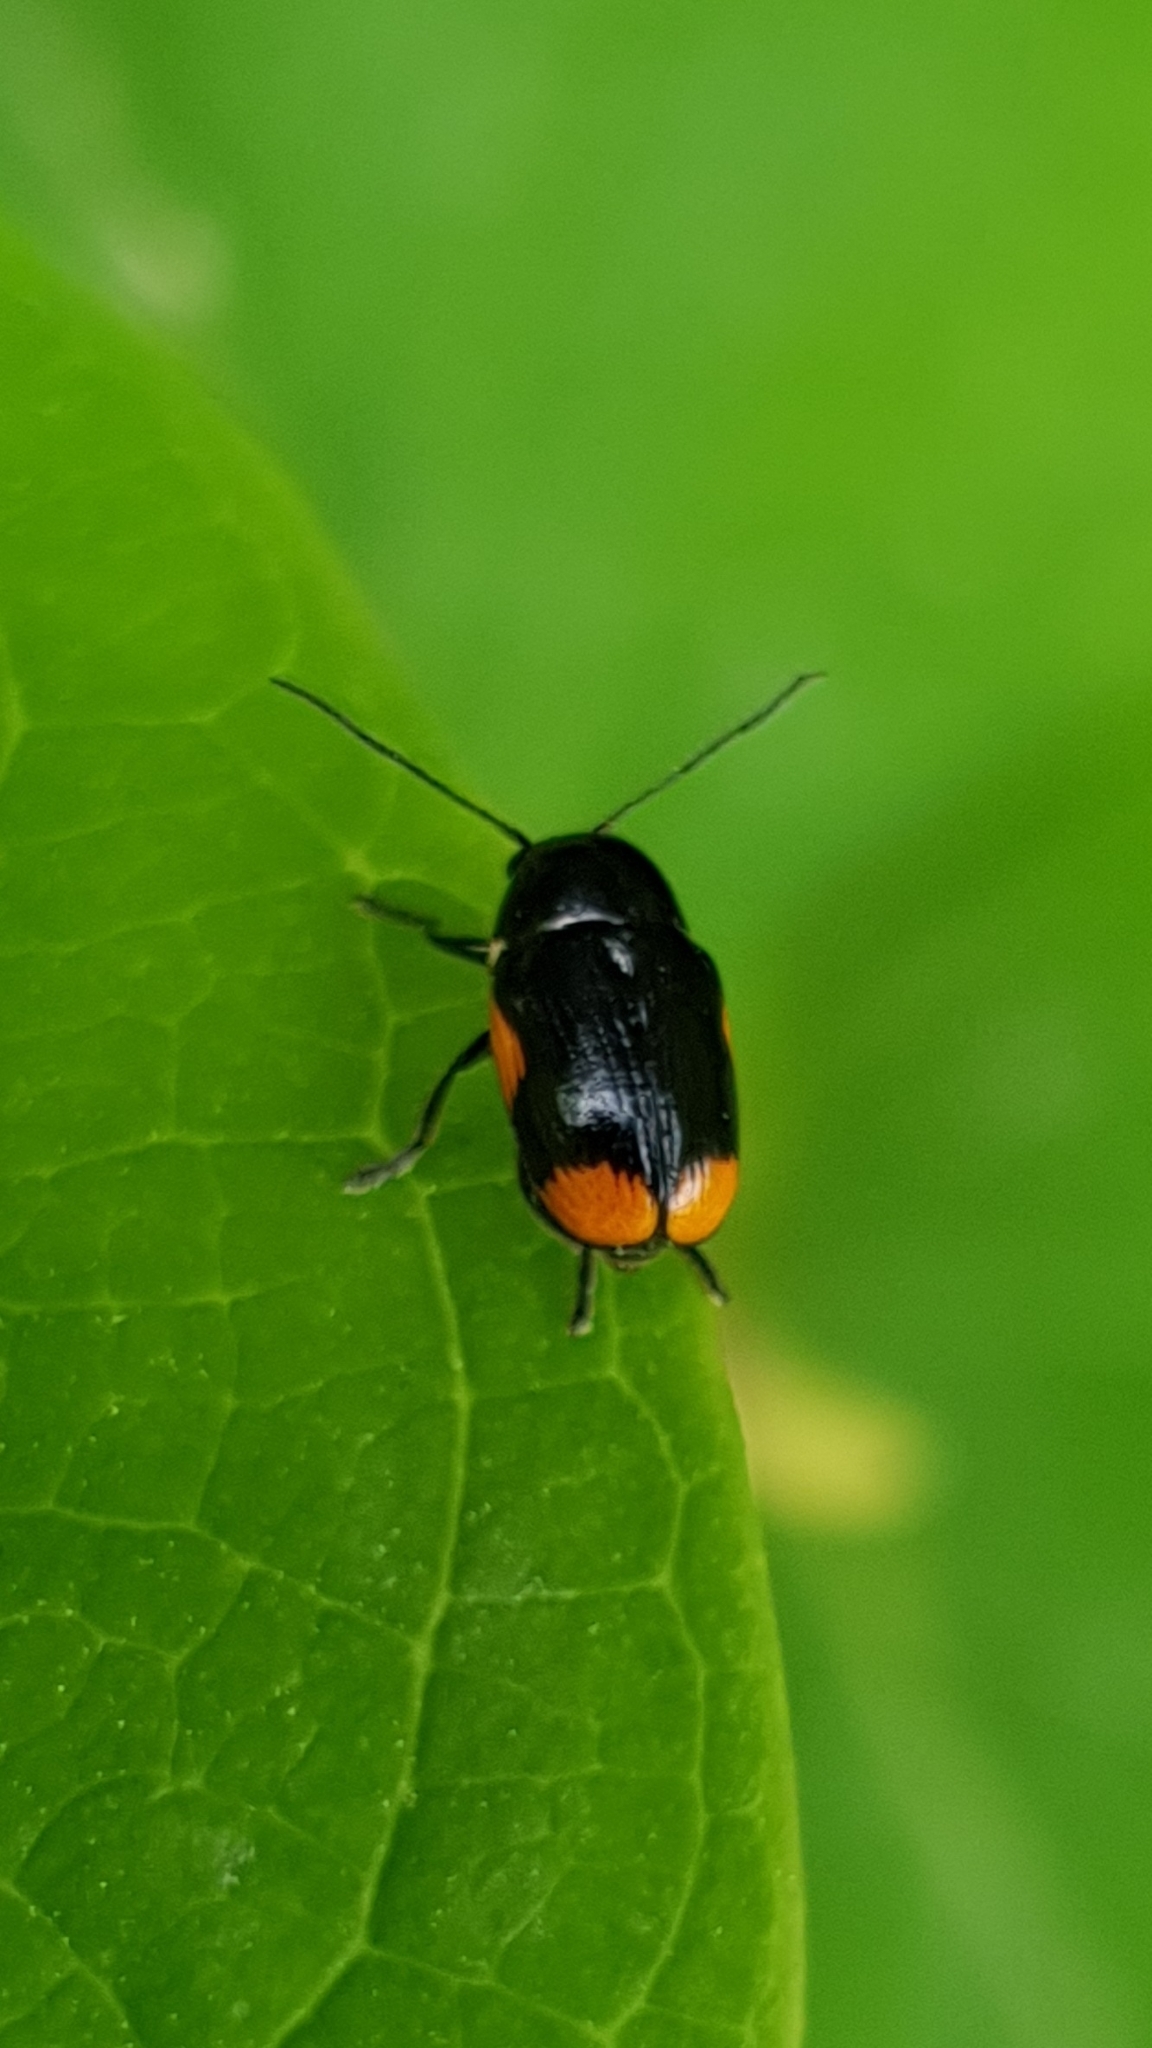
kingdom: Animalia
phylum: Arthropoda
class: Insecta
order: Coleoptera
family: Chrysomelidae
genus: Cryptocephalus
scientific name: Cryptocephalus moraei
